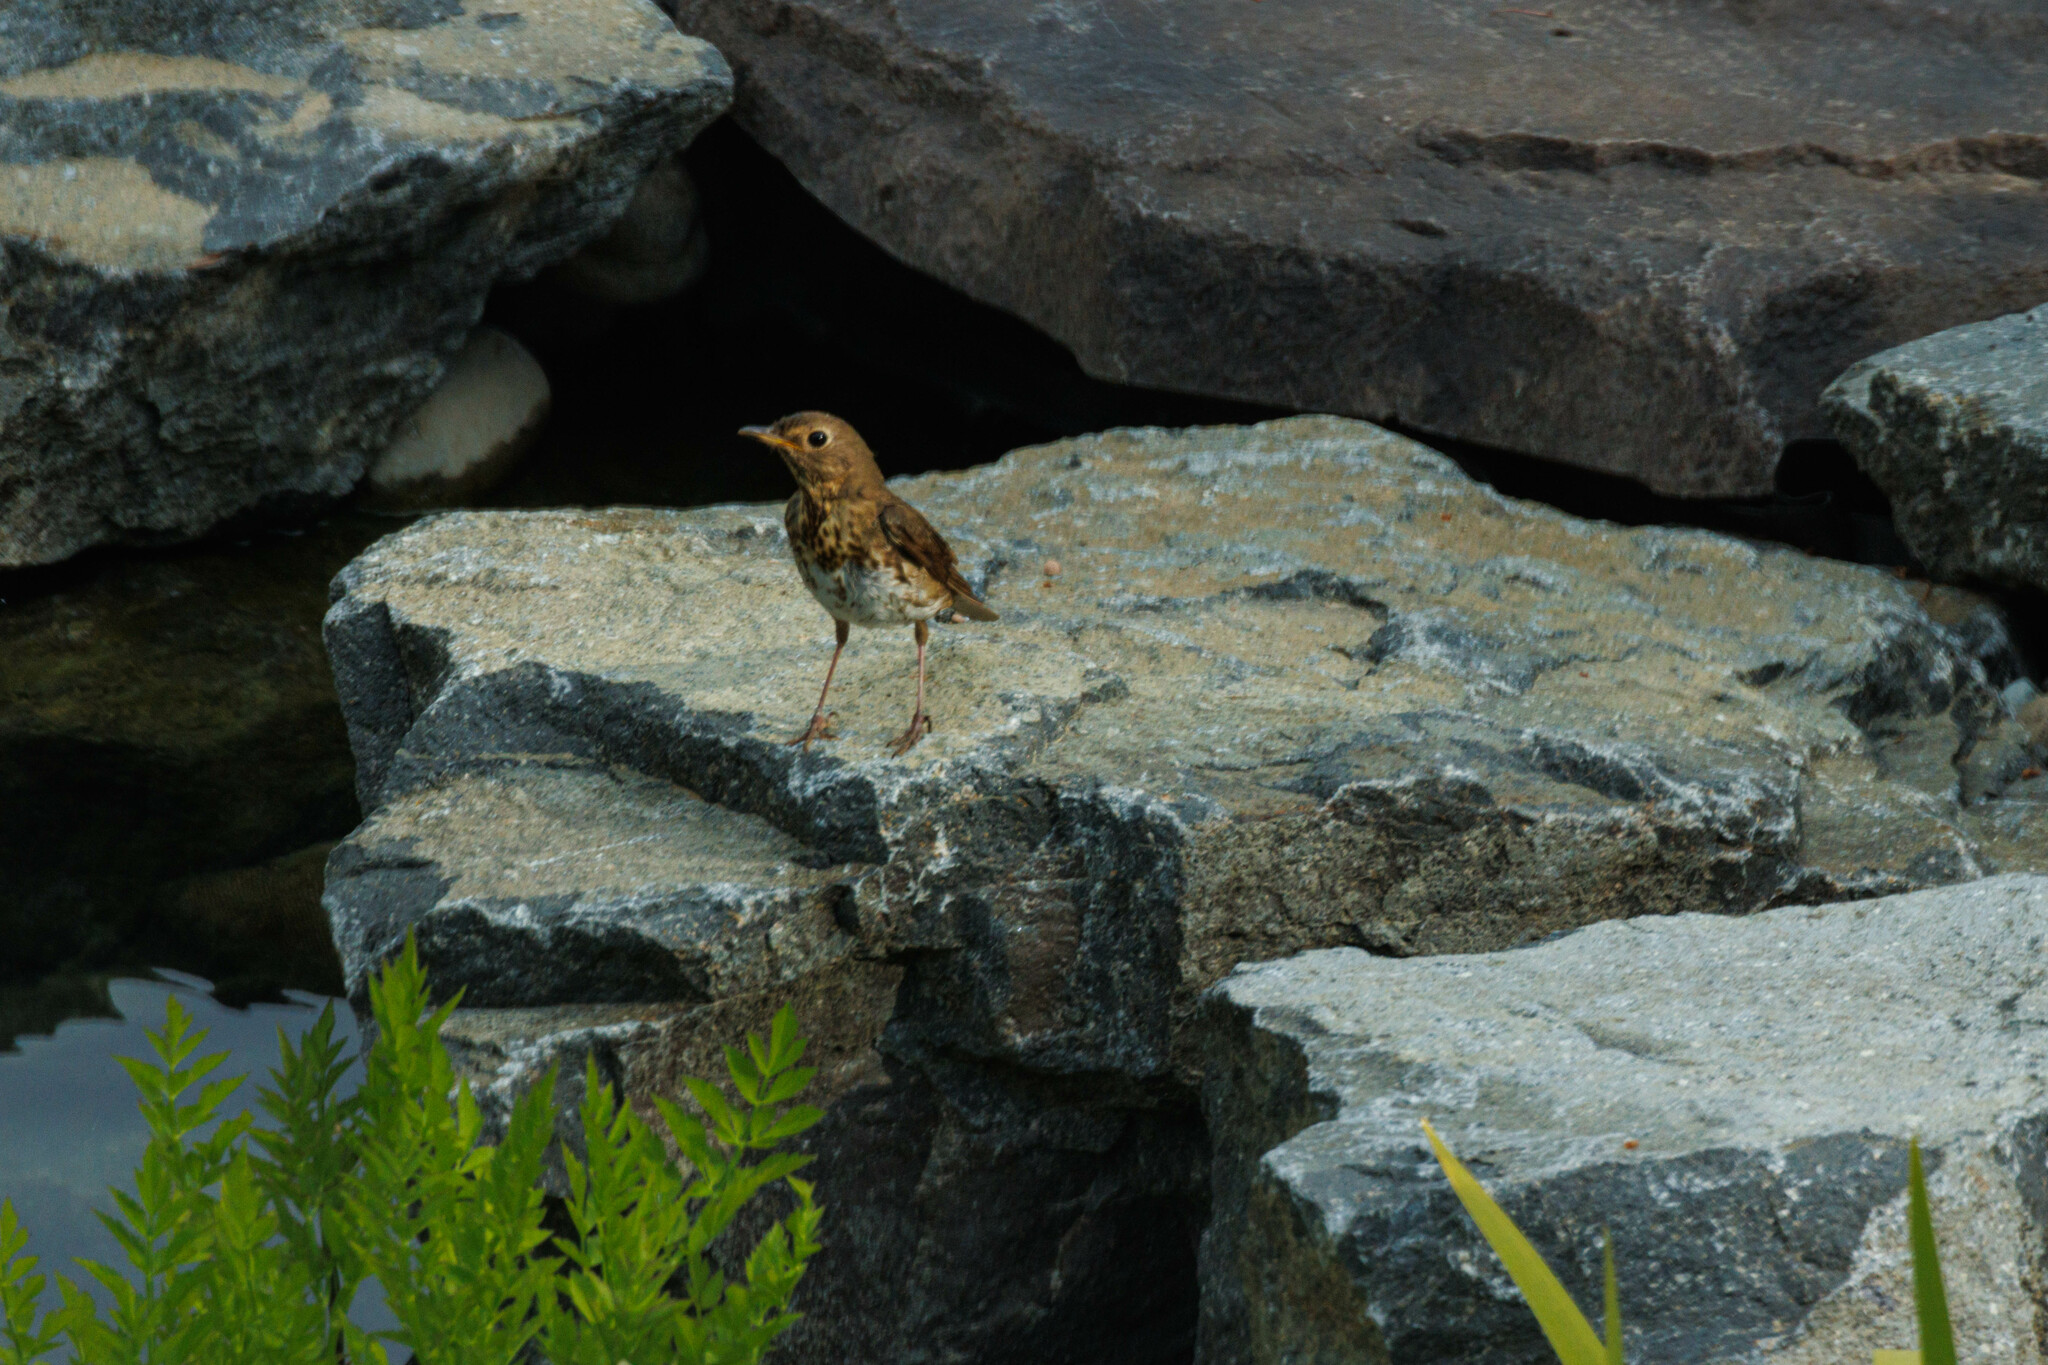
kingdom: Animalia
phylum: Chordata
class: Aves
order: Passeriformes
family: Turdidae
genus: Catharus
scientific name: Catharus ustulatus
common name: Swainson's thrush
